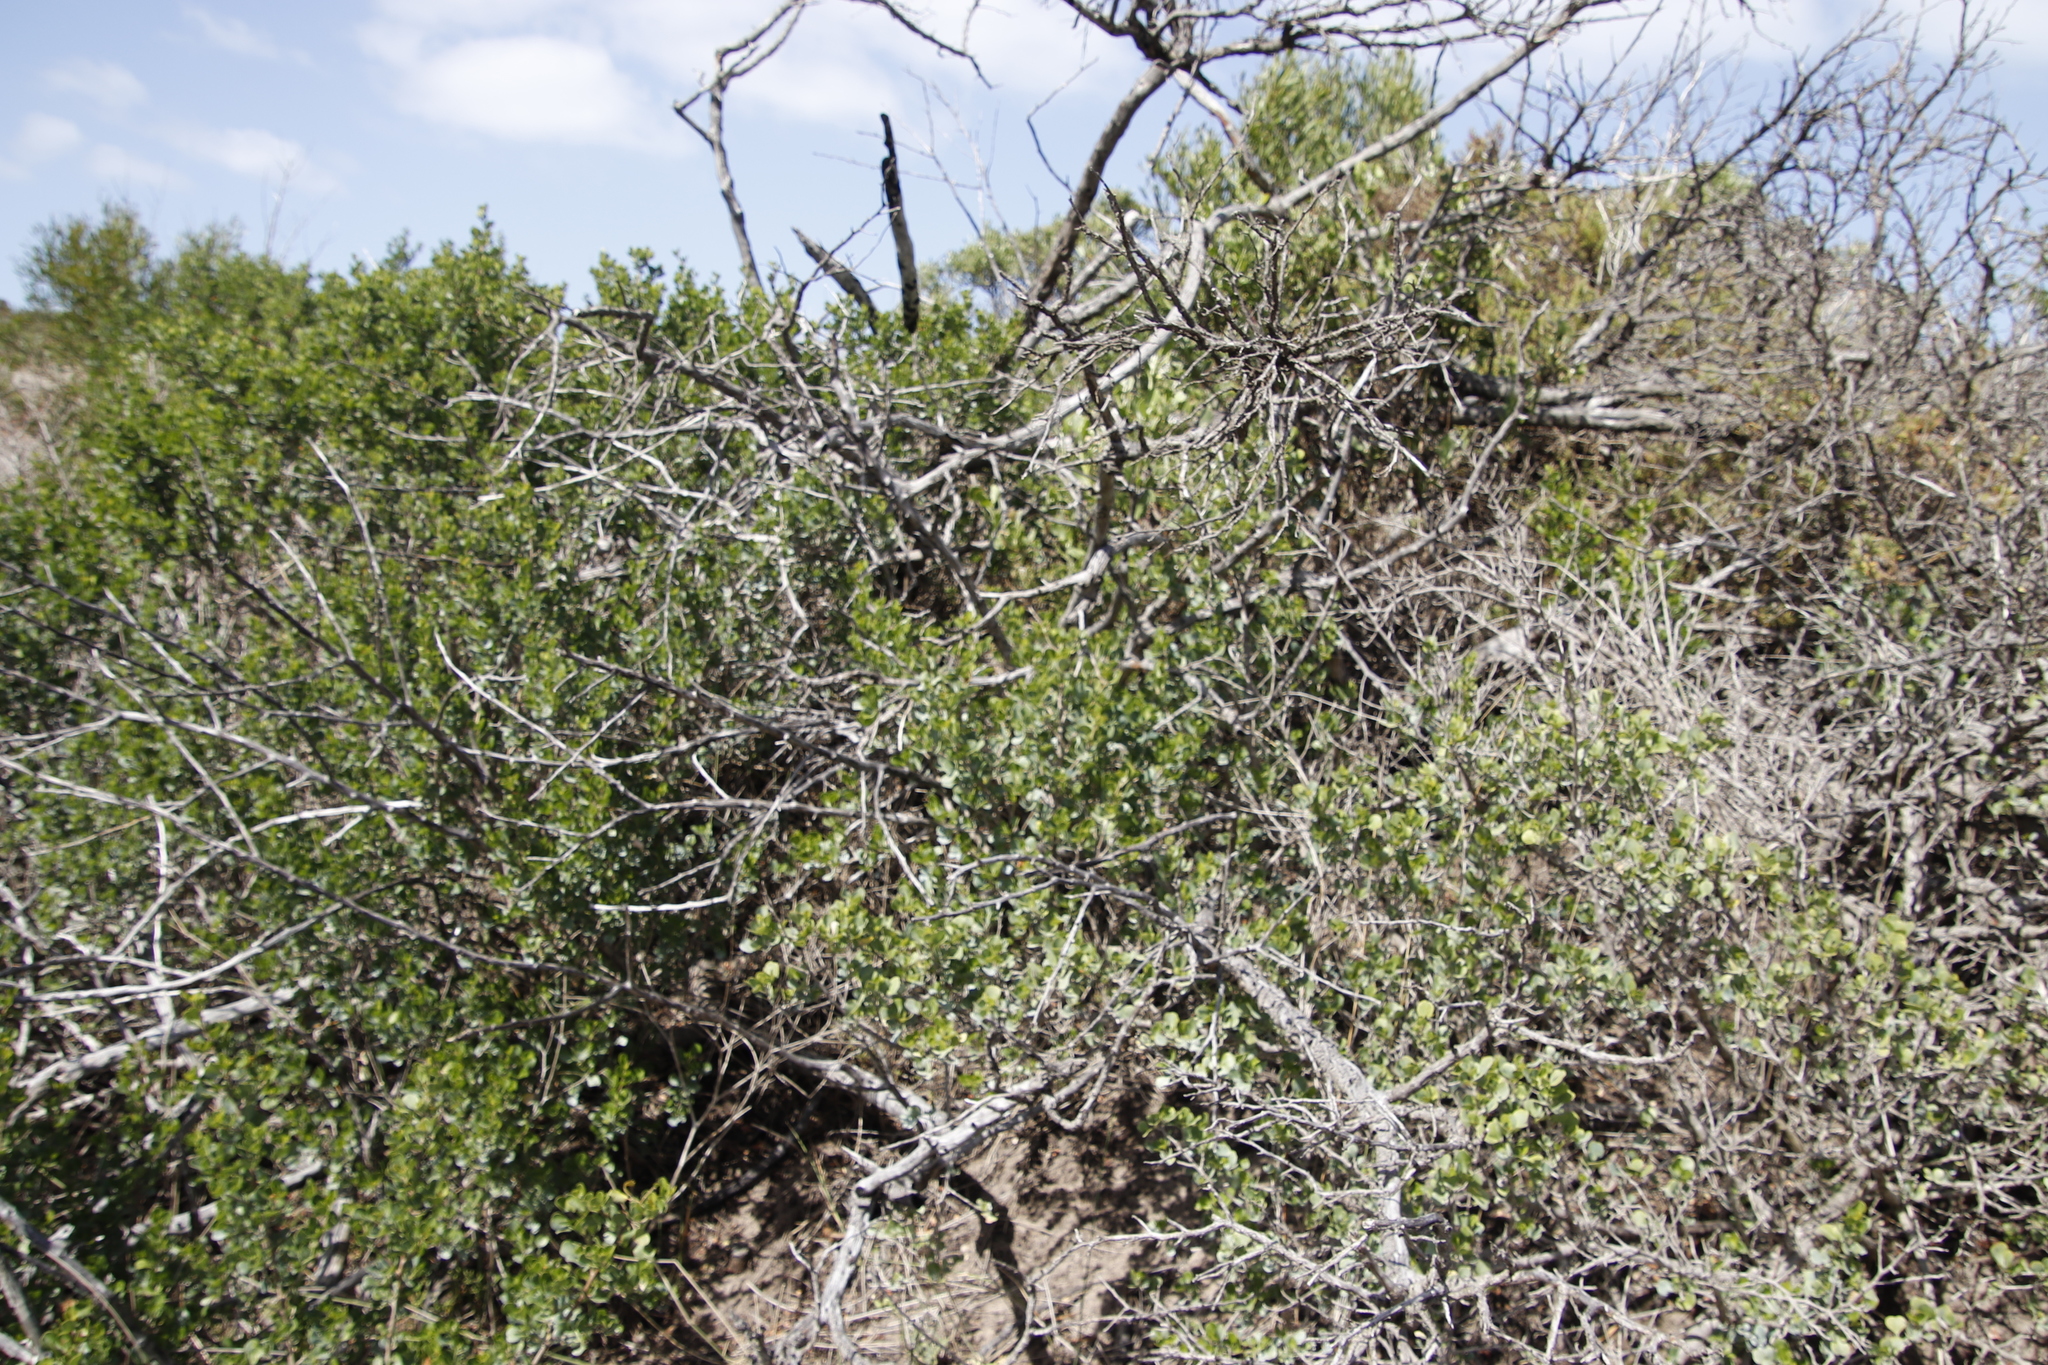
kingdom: Plantae
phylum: Tracheophyta
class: Magnoliopsida
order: Sapindales
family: Anacardiaceae
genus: Searsia
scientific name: Searsia glauca
